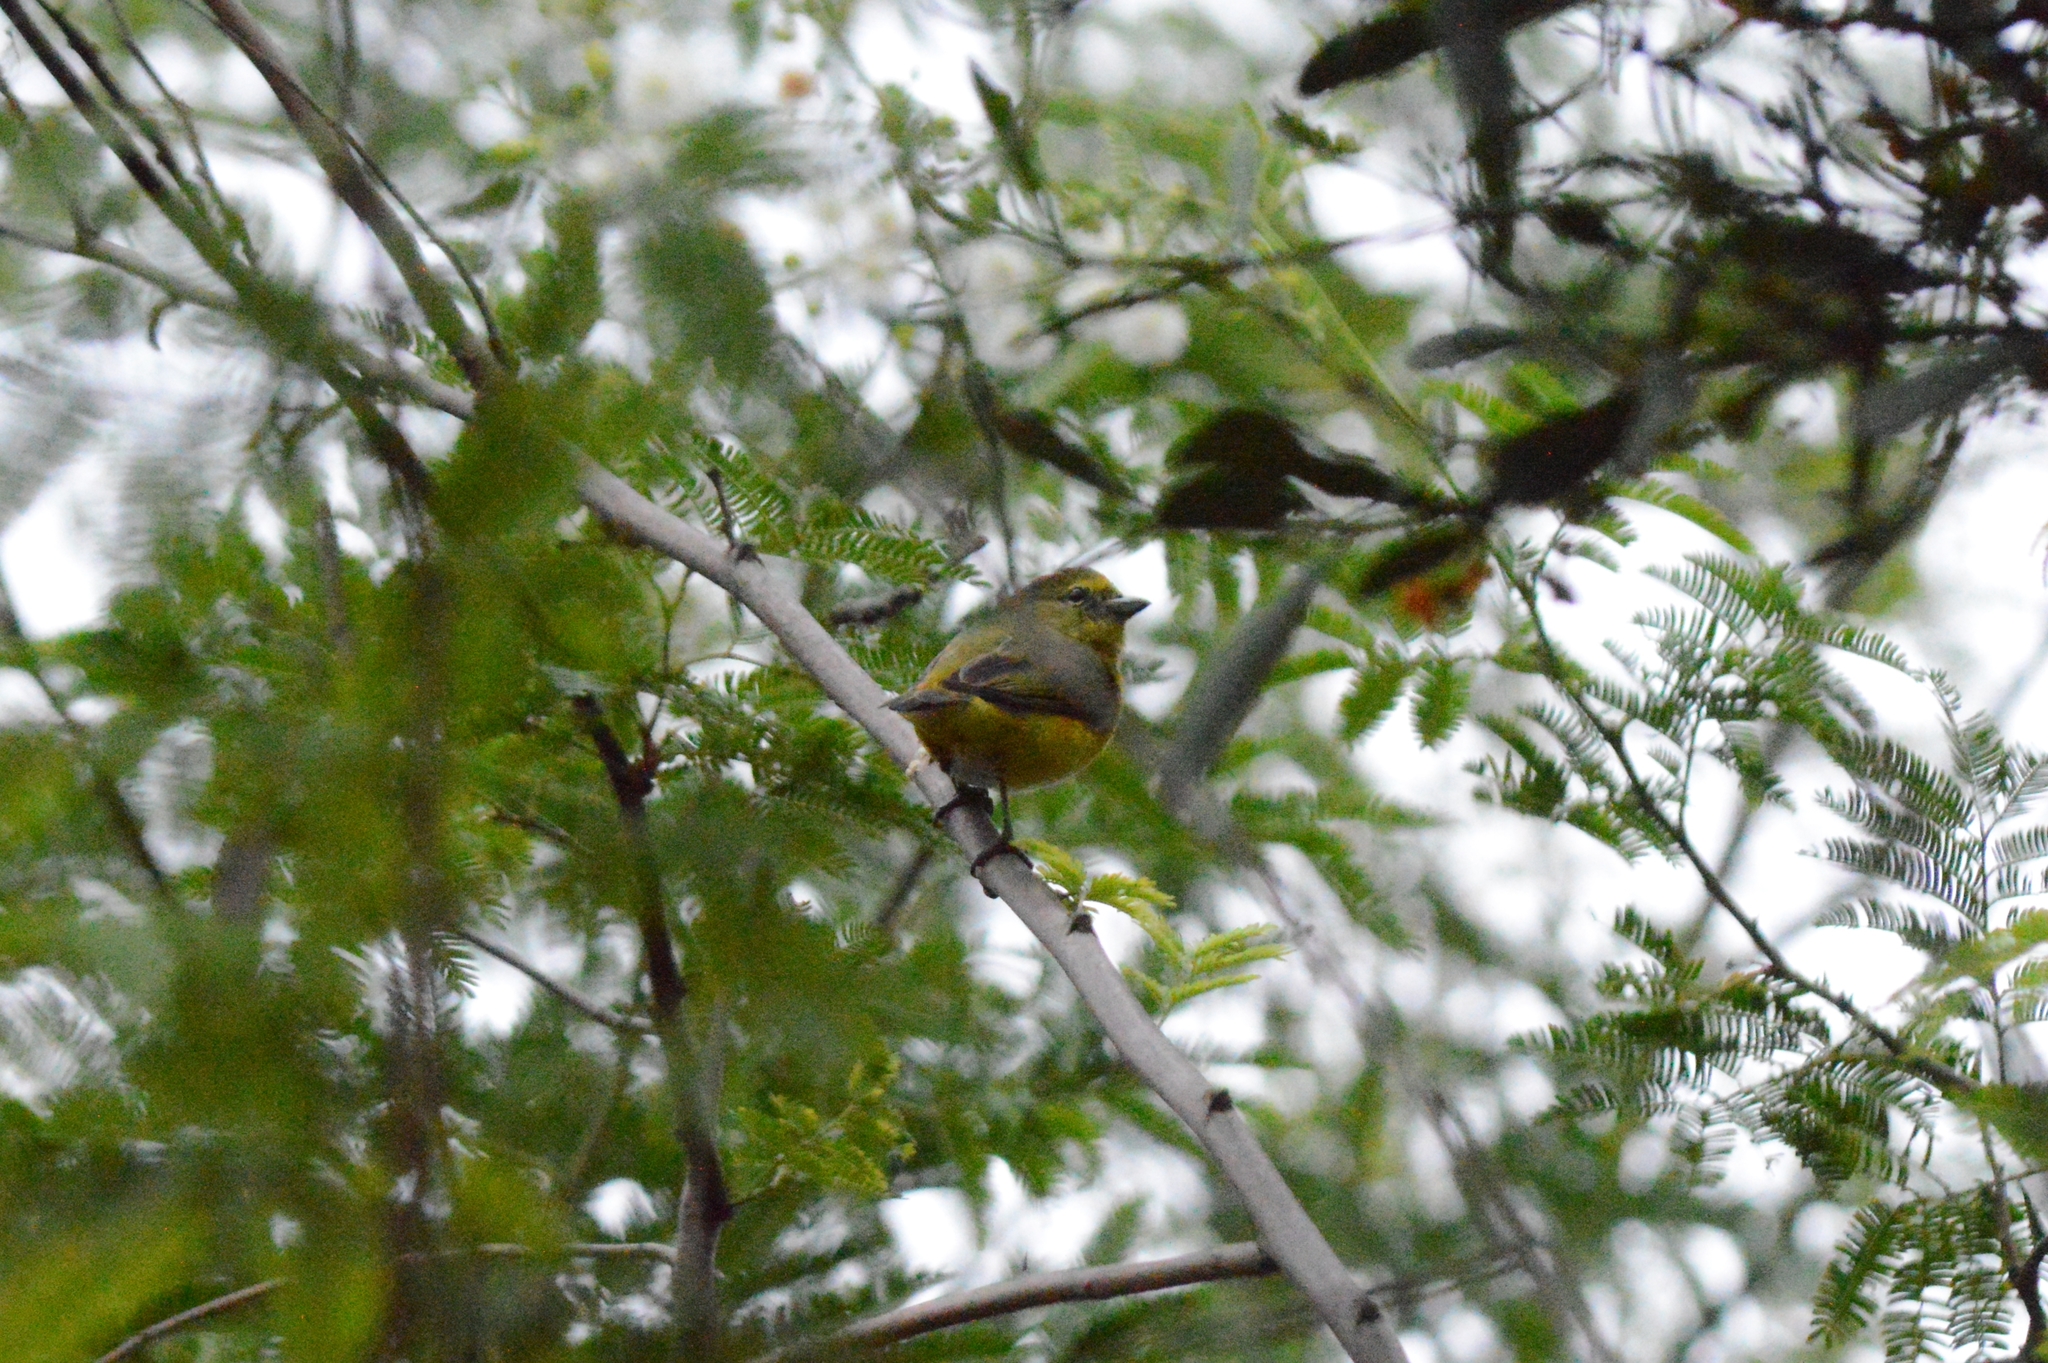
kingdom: Animalia
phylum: Chordata
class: Aves
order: Passeriformes
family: Fringillidae
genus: Euphonia
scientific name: Euphonia xanthogaster
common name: Orange-bellied euphonia
